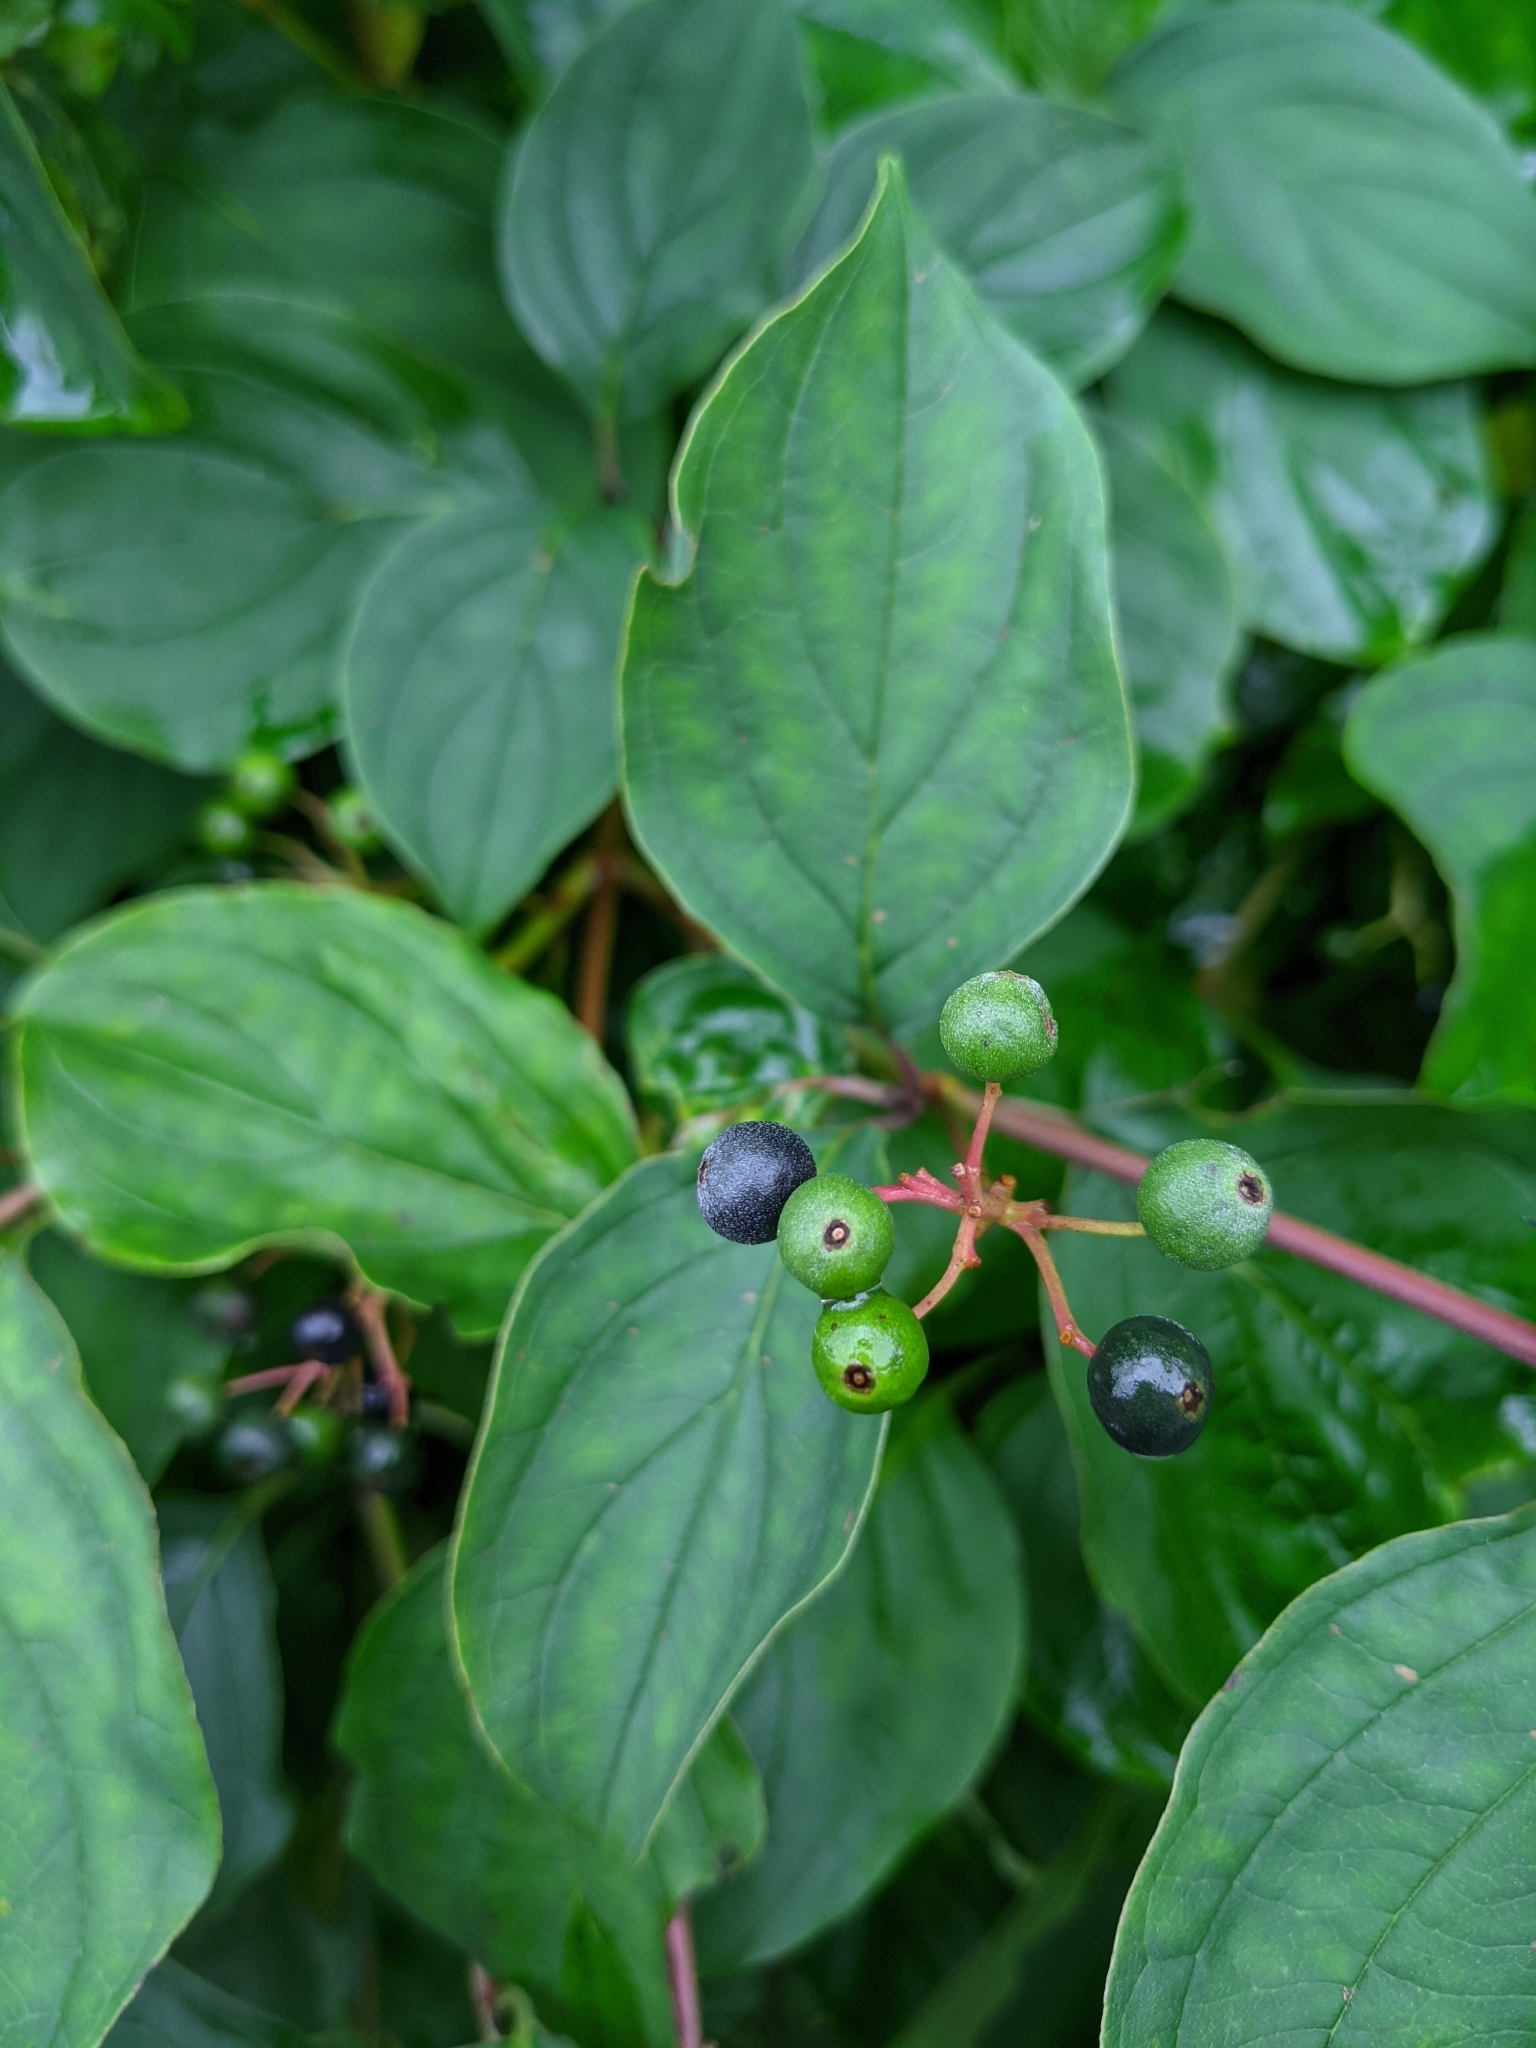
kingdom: Plantae
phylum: Tracheophyta
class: Magnoliopsida
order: Cornales
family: Cornaceae
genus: Cornus
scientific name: Cornus sanguinea
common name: Dogwood
